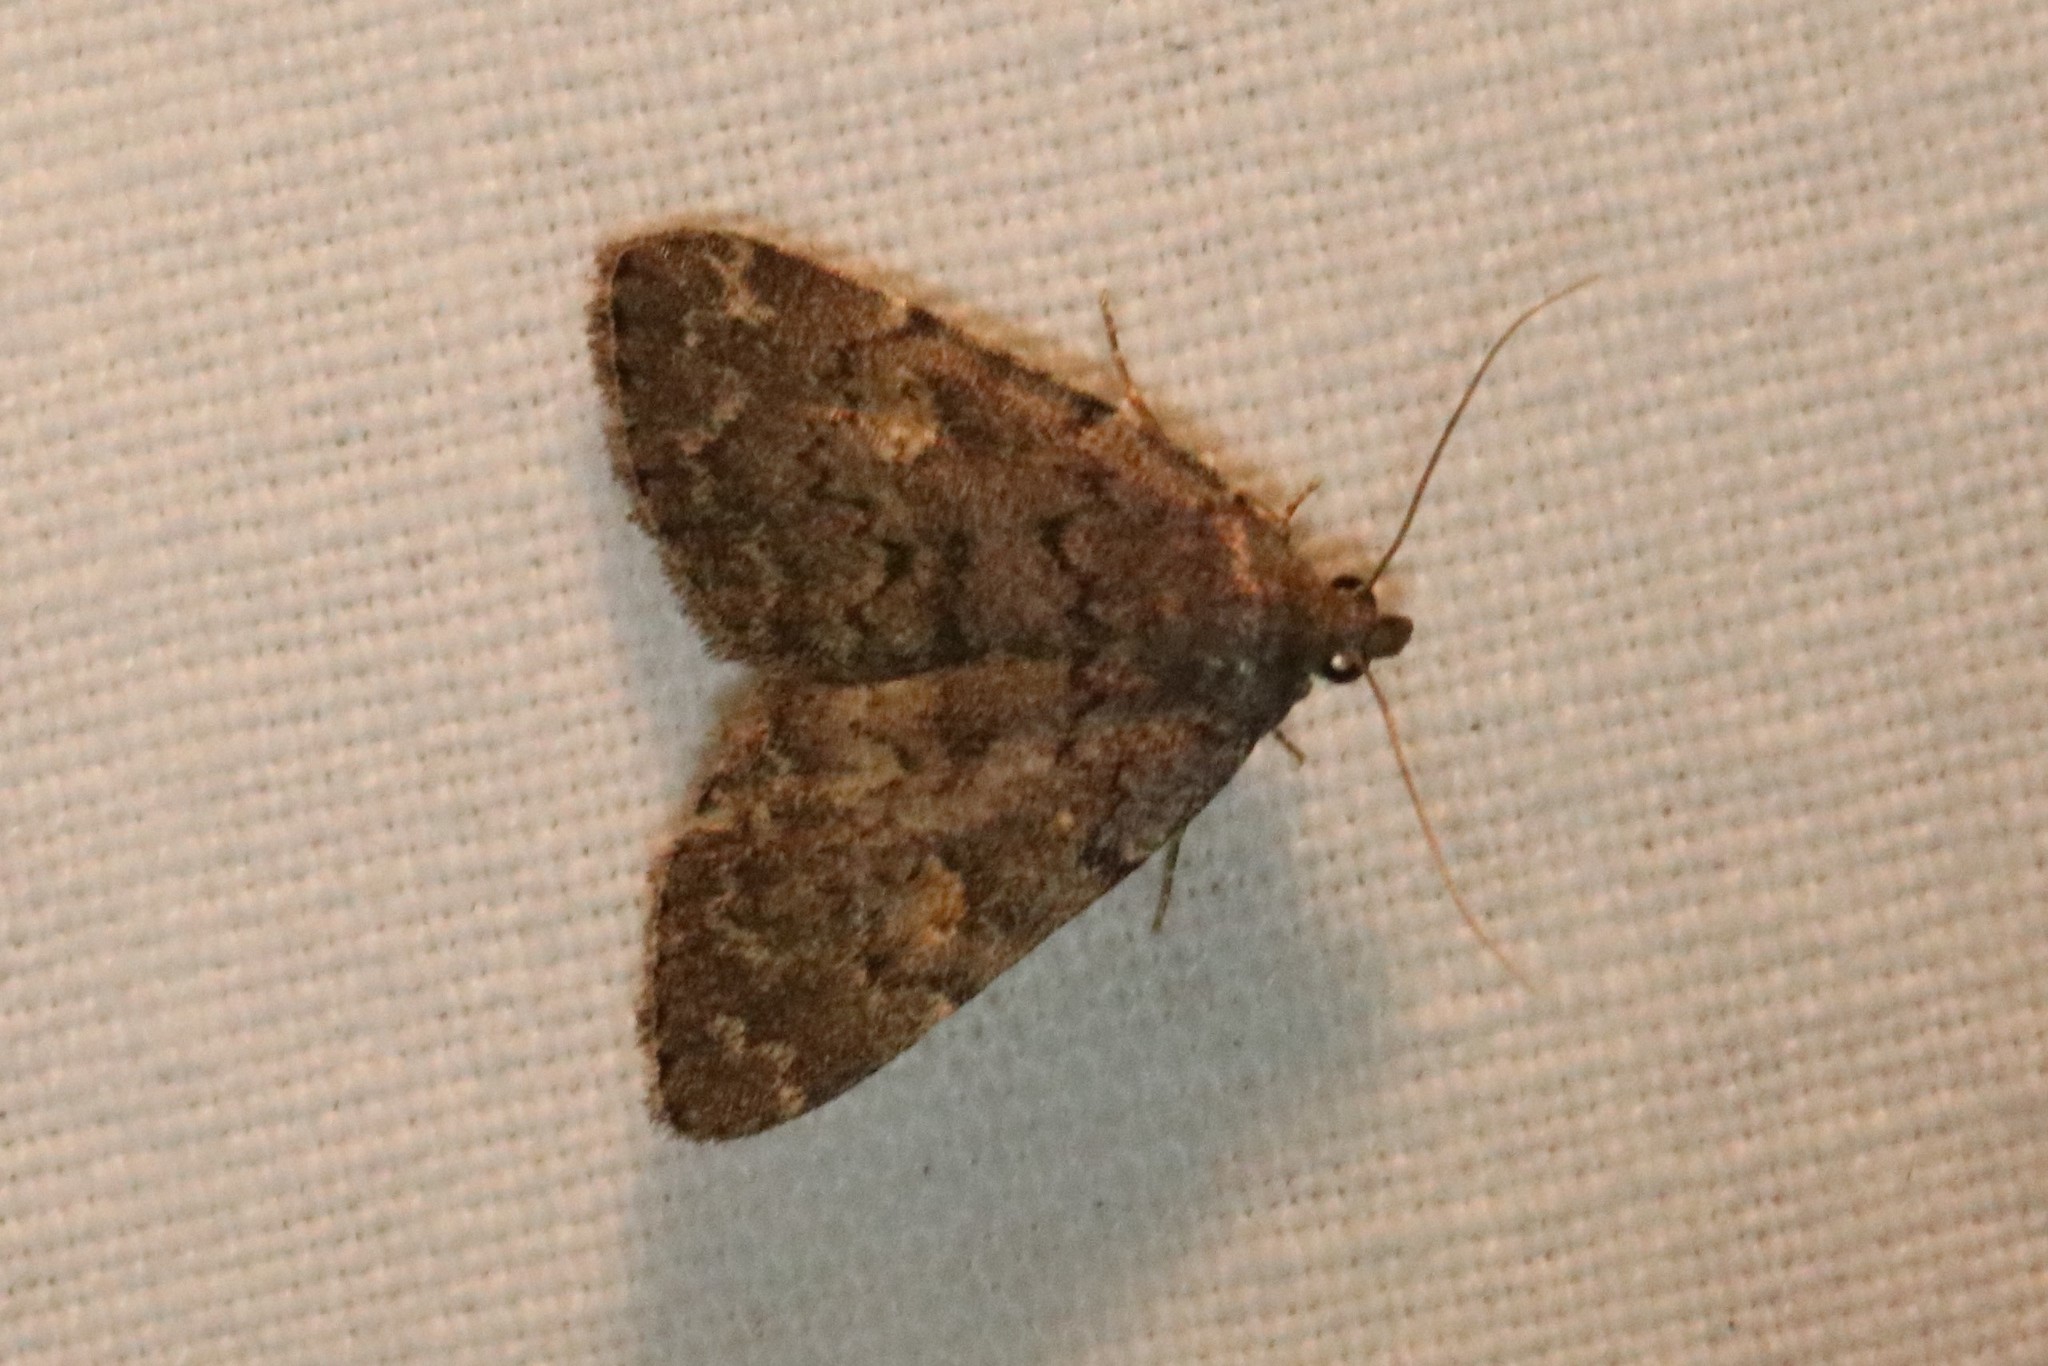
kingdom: Animalia
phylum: Arthropoda
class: Insecta
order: Lepidoptera
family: Erebidae
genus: Idia
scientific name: Idia aemula
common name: Common idia moth
